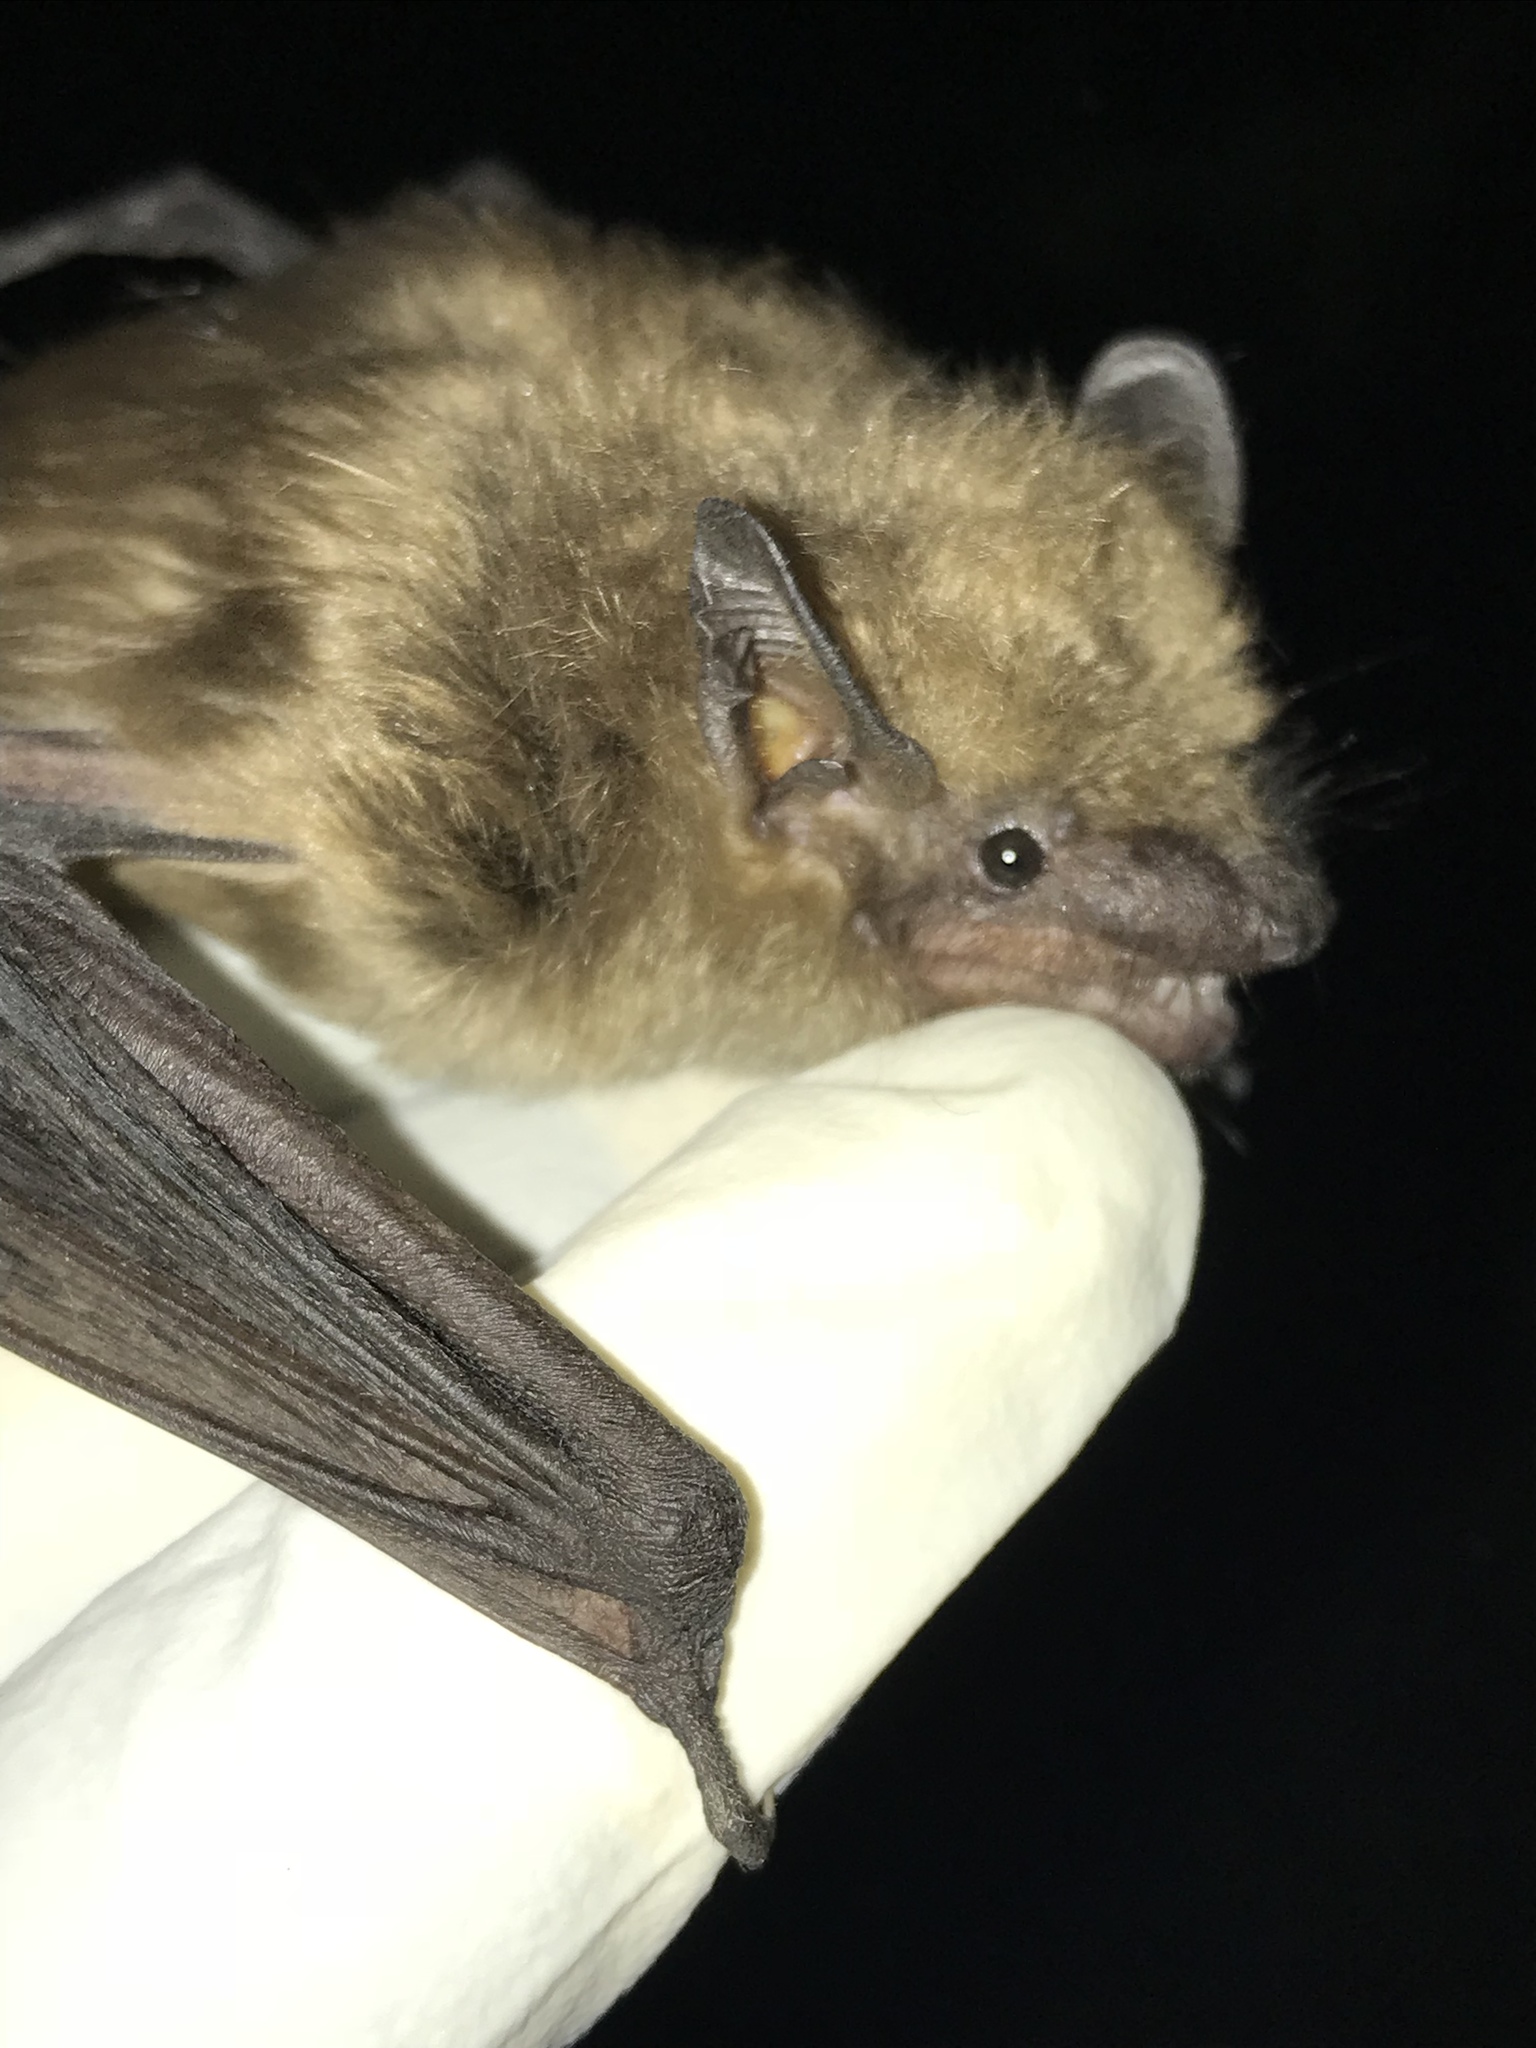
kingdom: Animalia
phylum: Chordata
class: Mammalia
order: Chiroptera
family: Vespertilionidae
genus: Eptesicus
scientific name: Eptesicus fuscus
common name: Big brown bat
